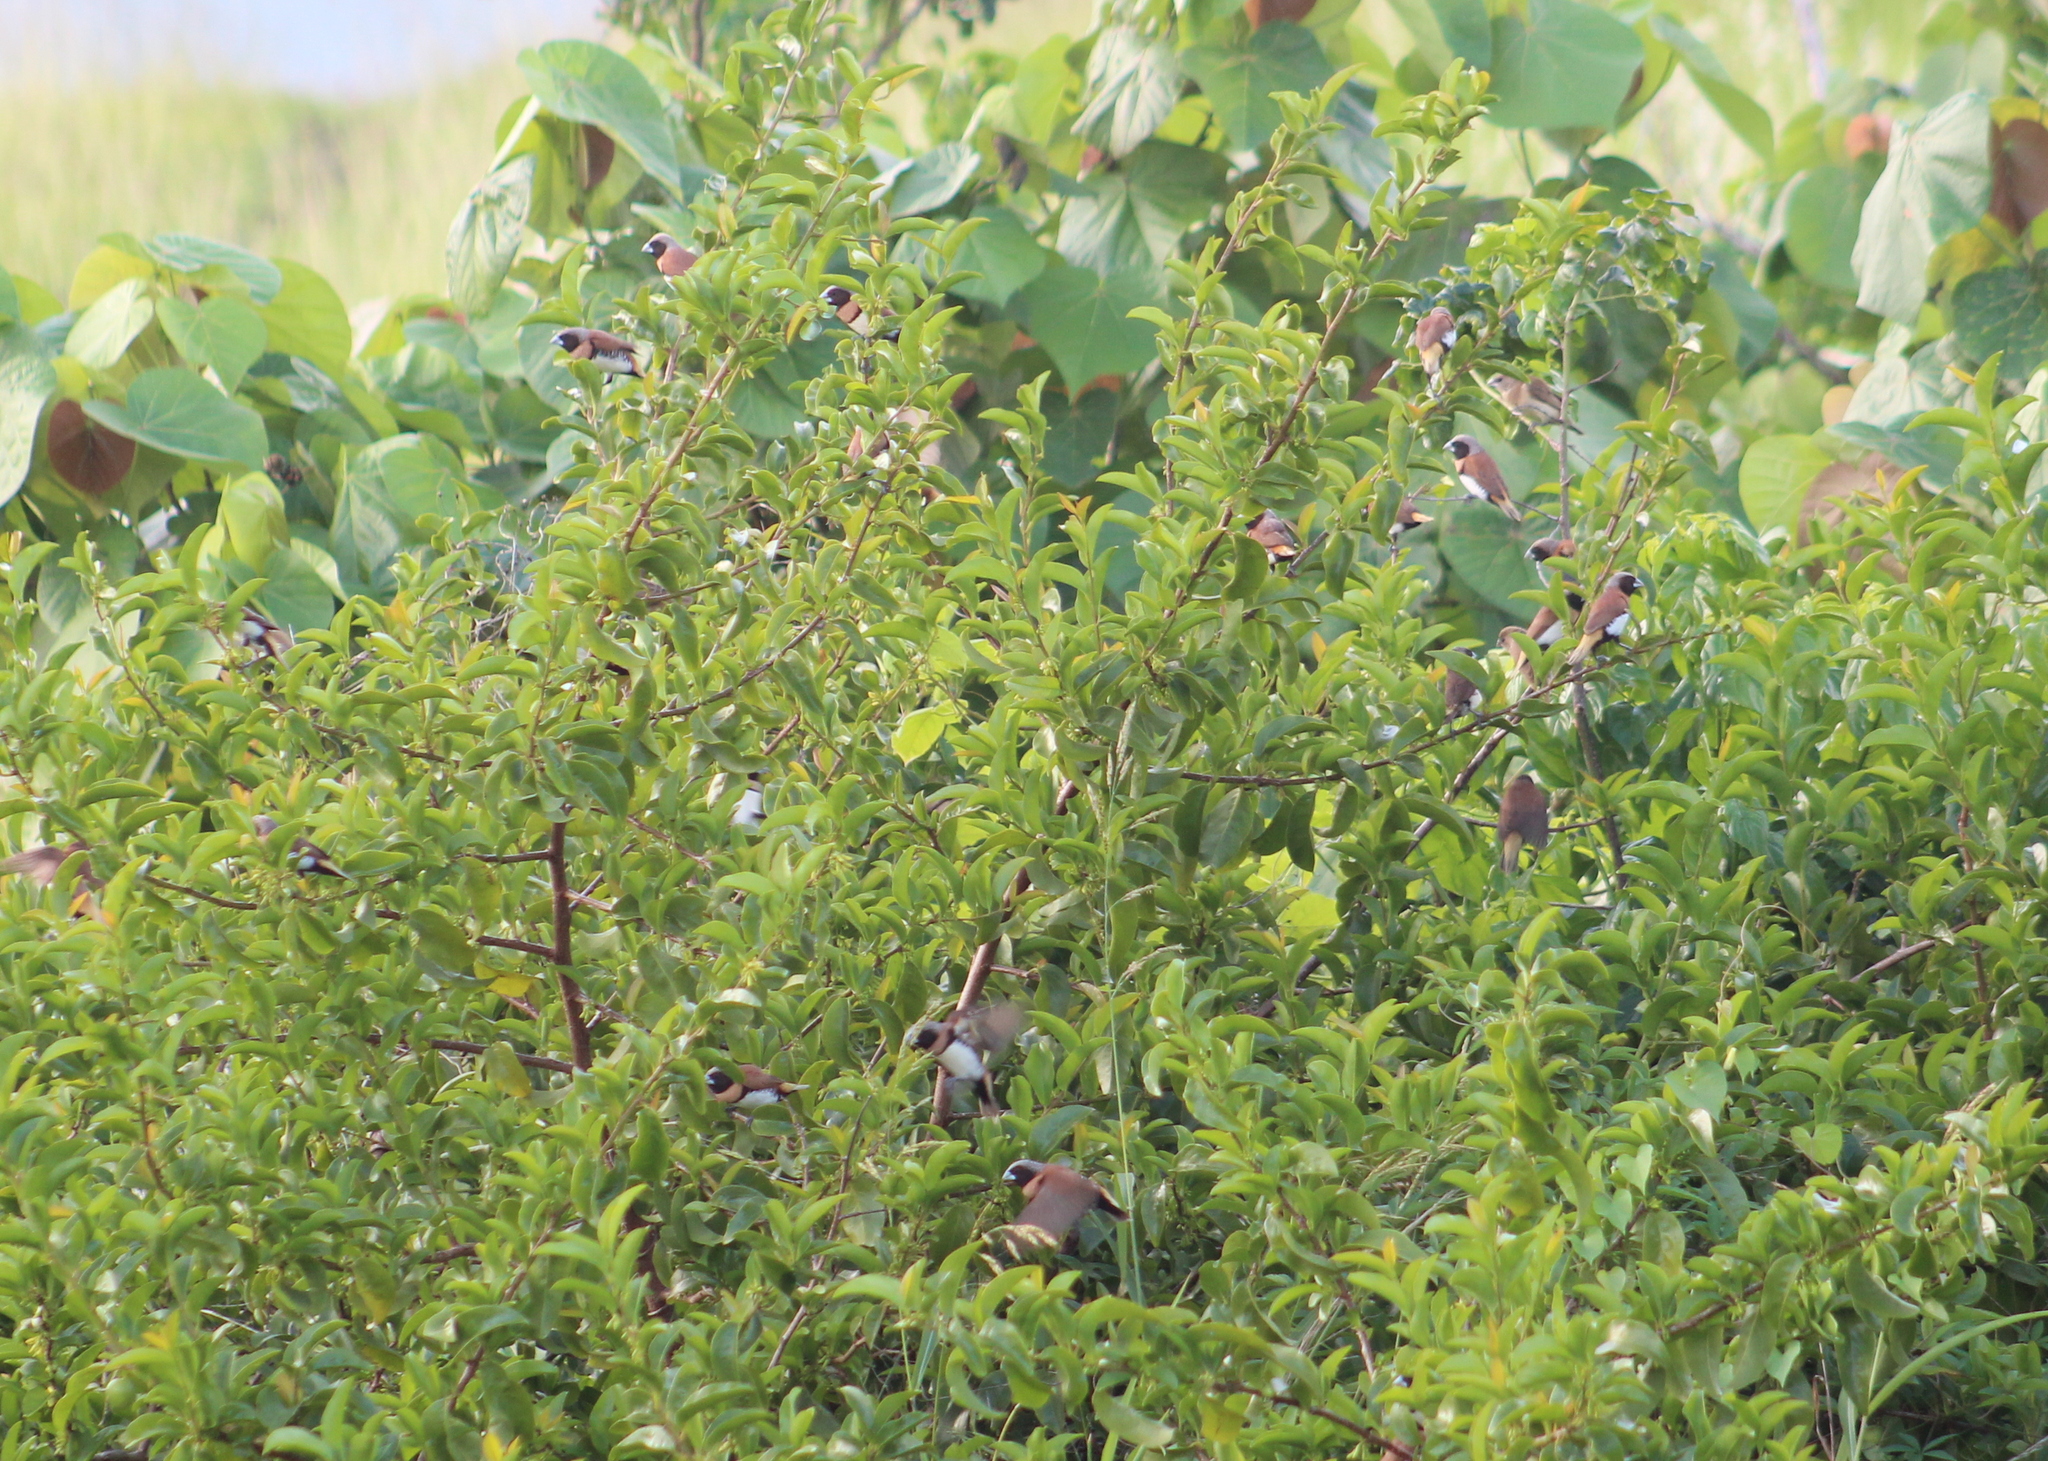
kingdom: Animalia
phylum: Chordata
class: Aves
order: Passeriformes
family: Estrildidae
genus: Lonchura
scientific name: Lonchura castaneothorax
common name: Chestnut-breasted mannikin
